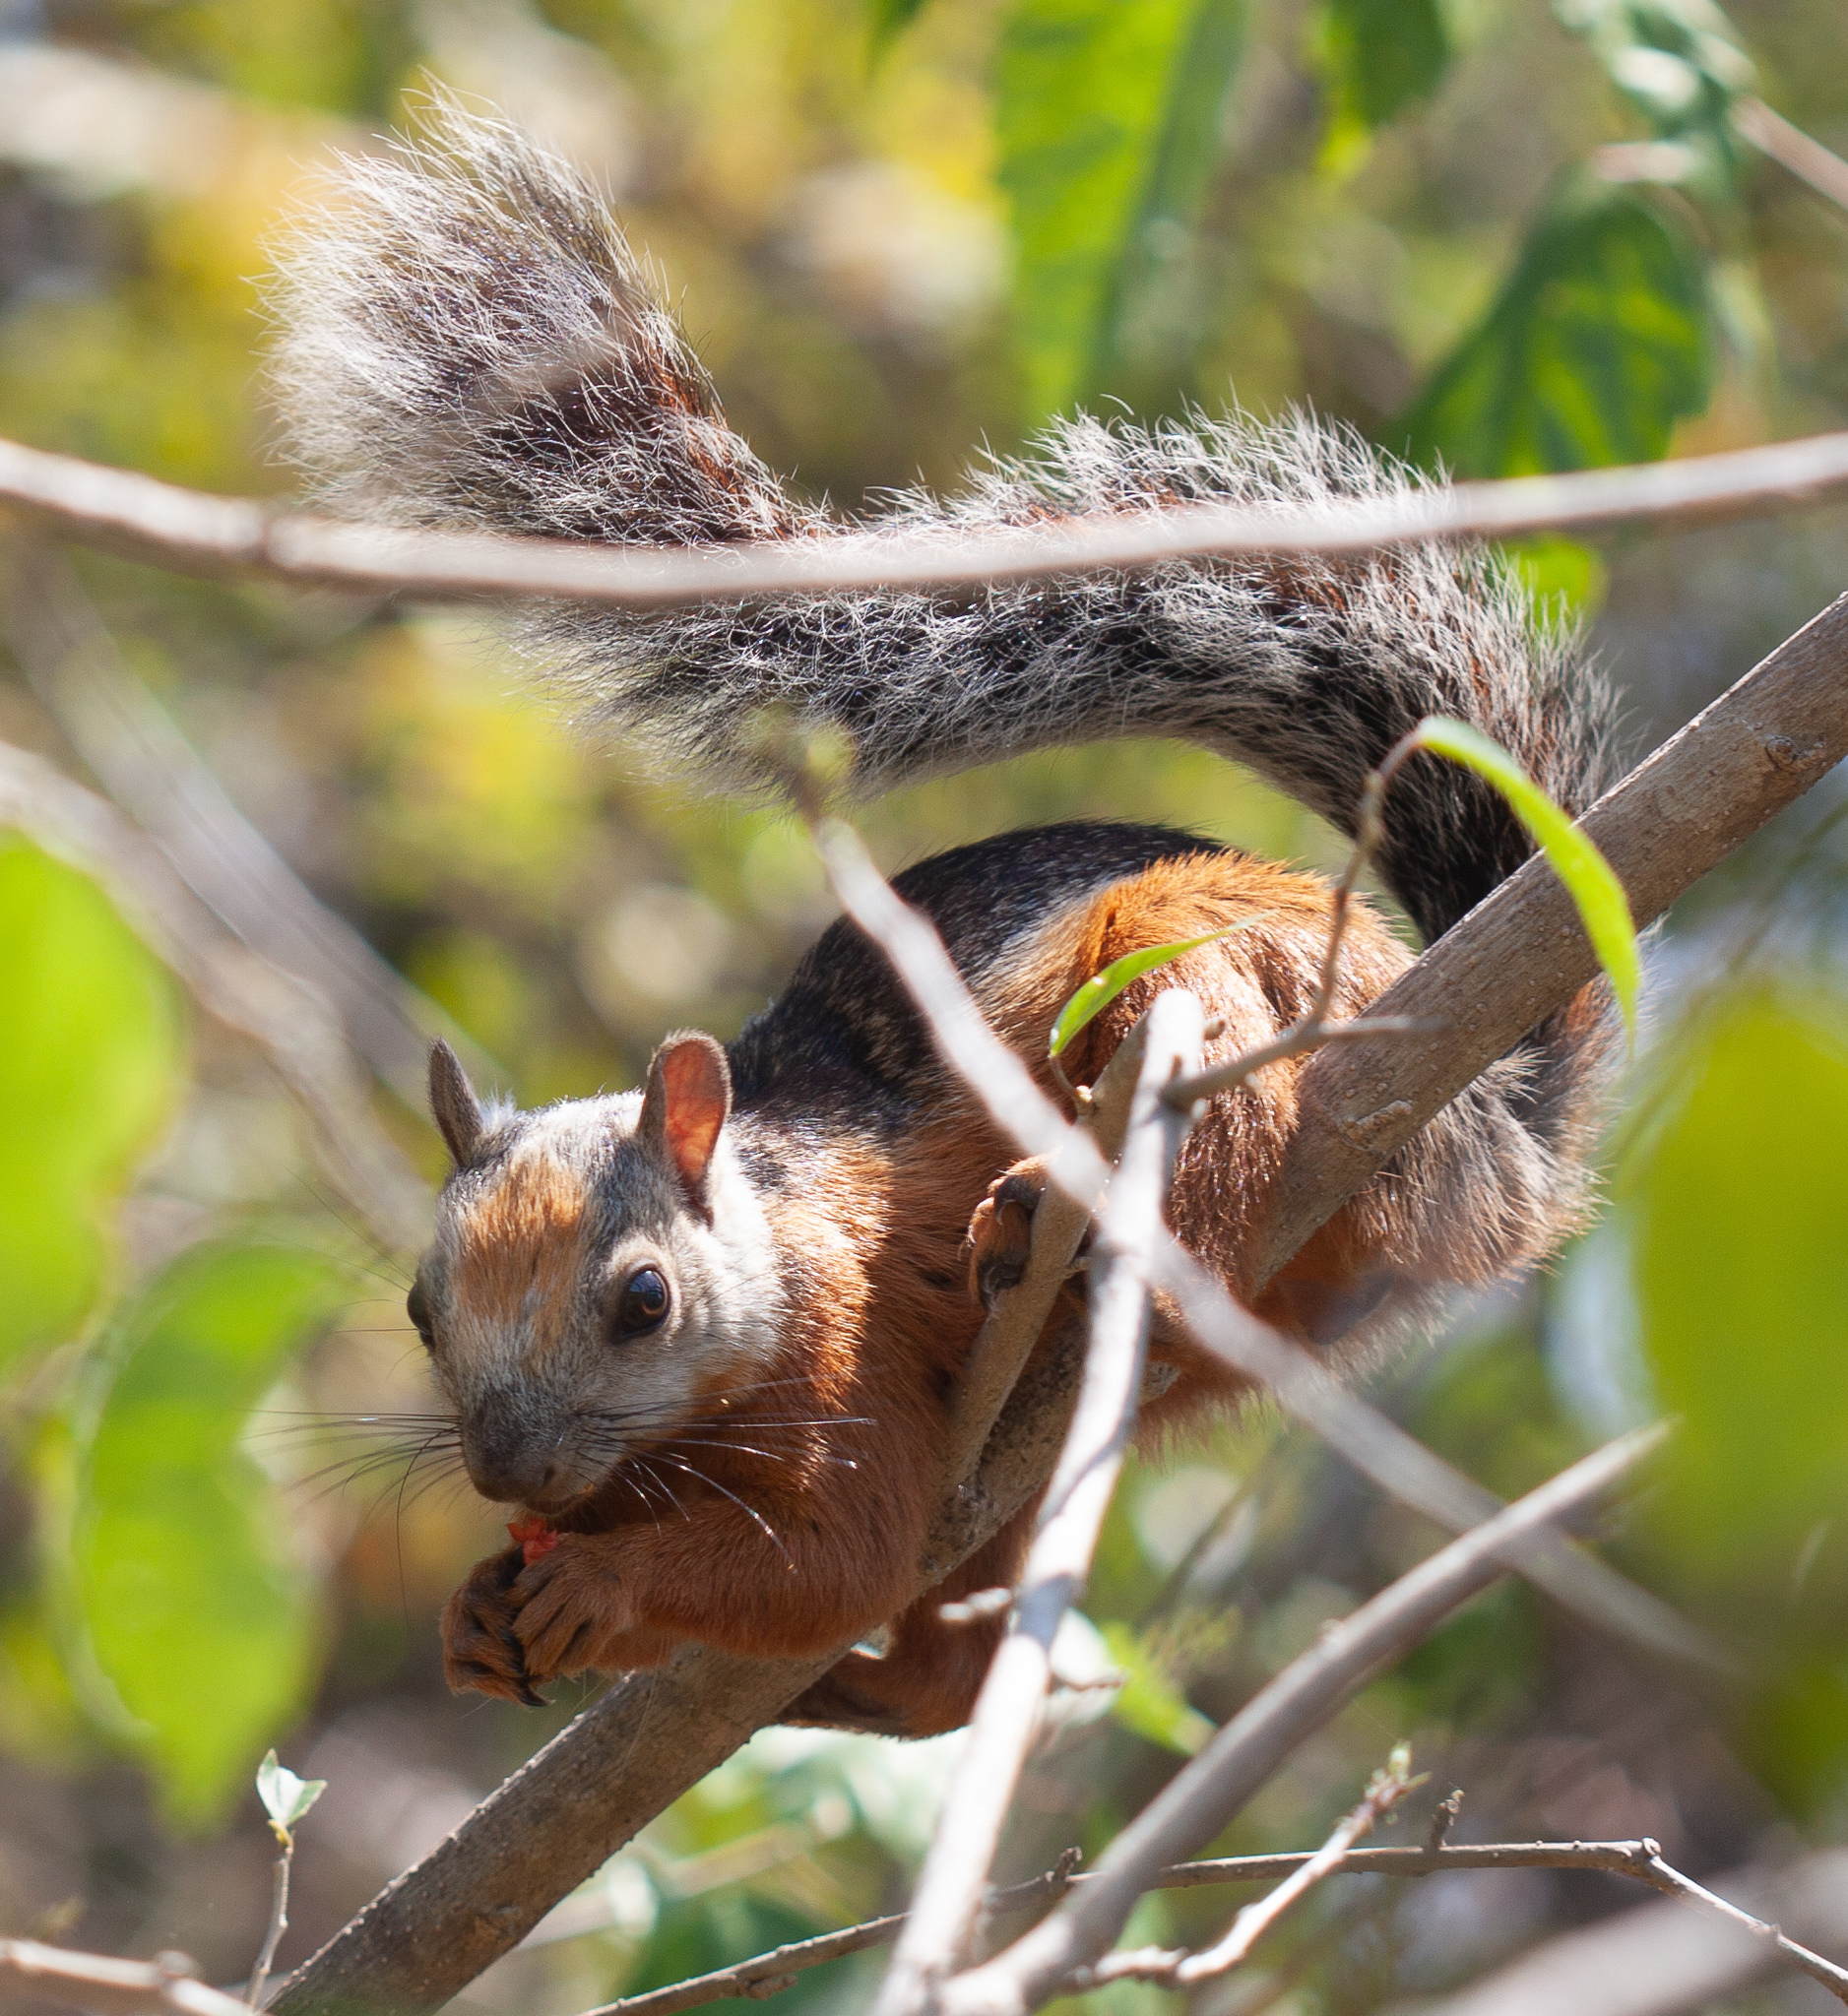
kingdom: Animalia
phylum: Chordata
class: Mammalia
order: Rodentia
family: Sciuridae
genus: Sciurus
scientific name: Sciurus variegatoides
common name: Variegated squirrel
